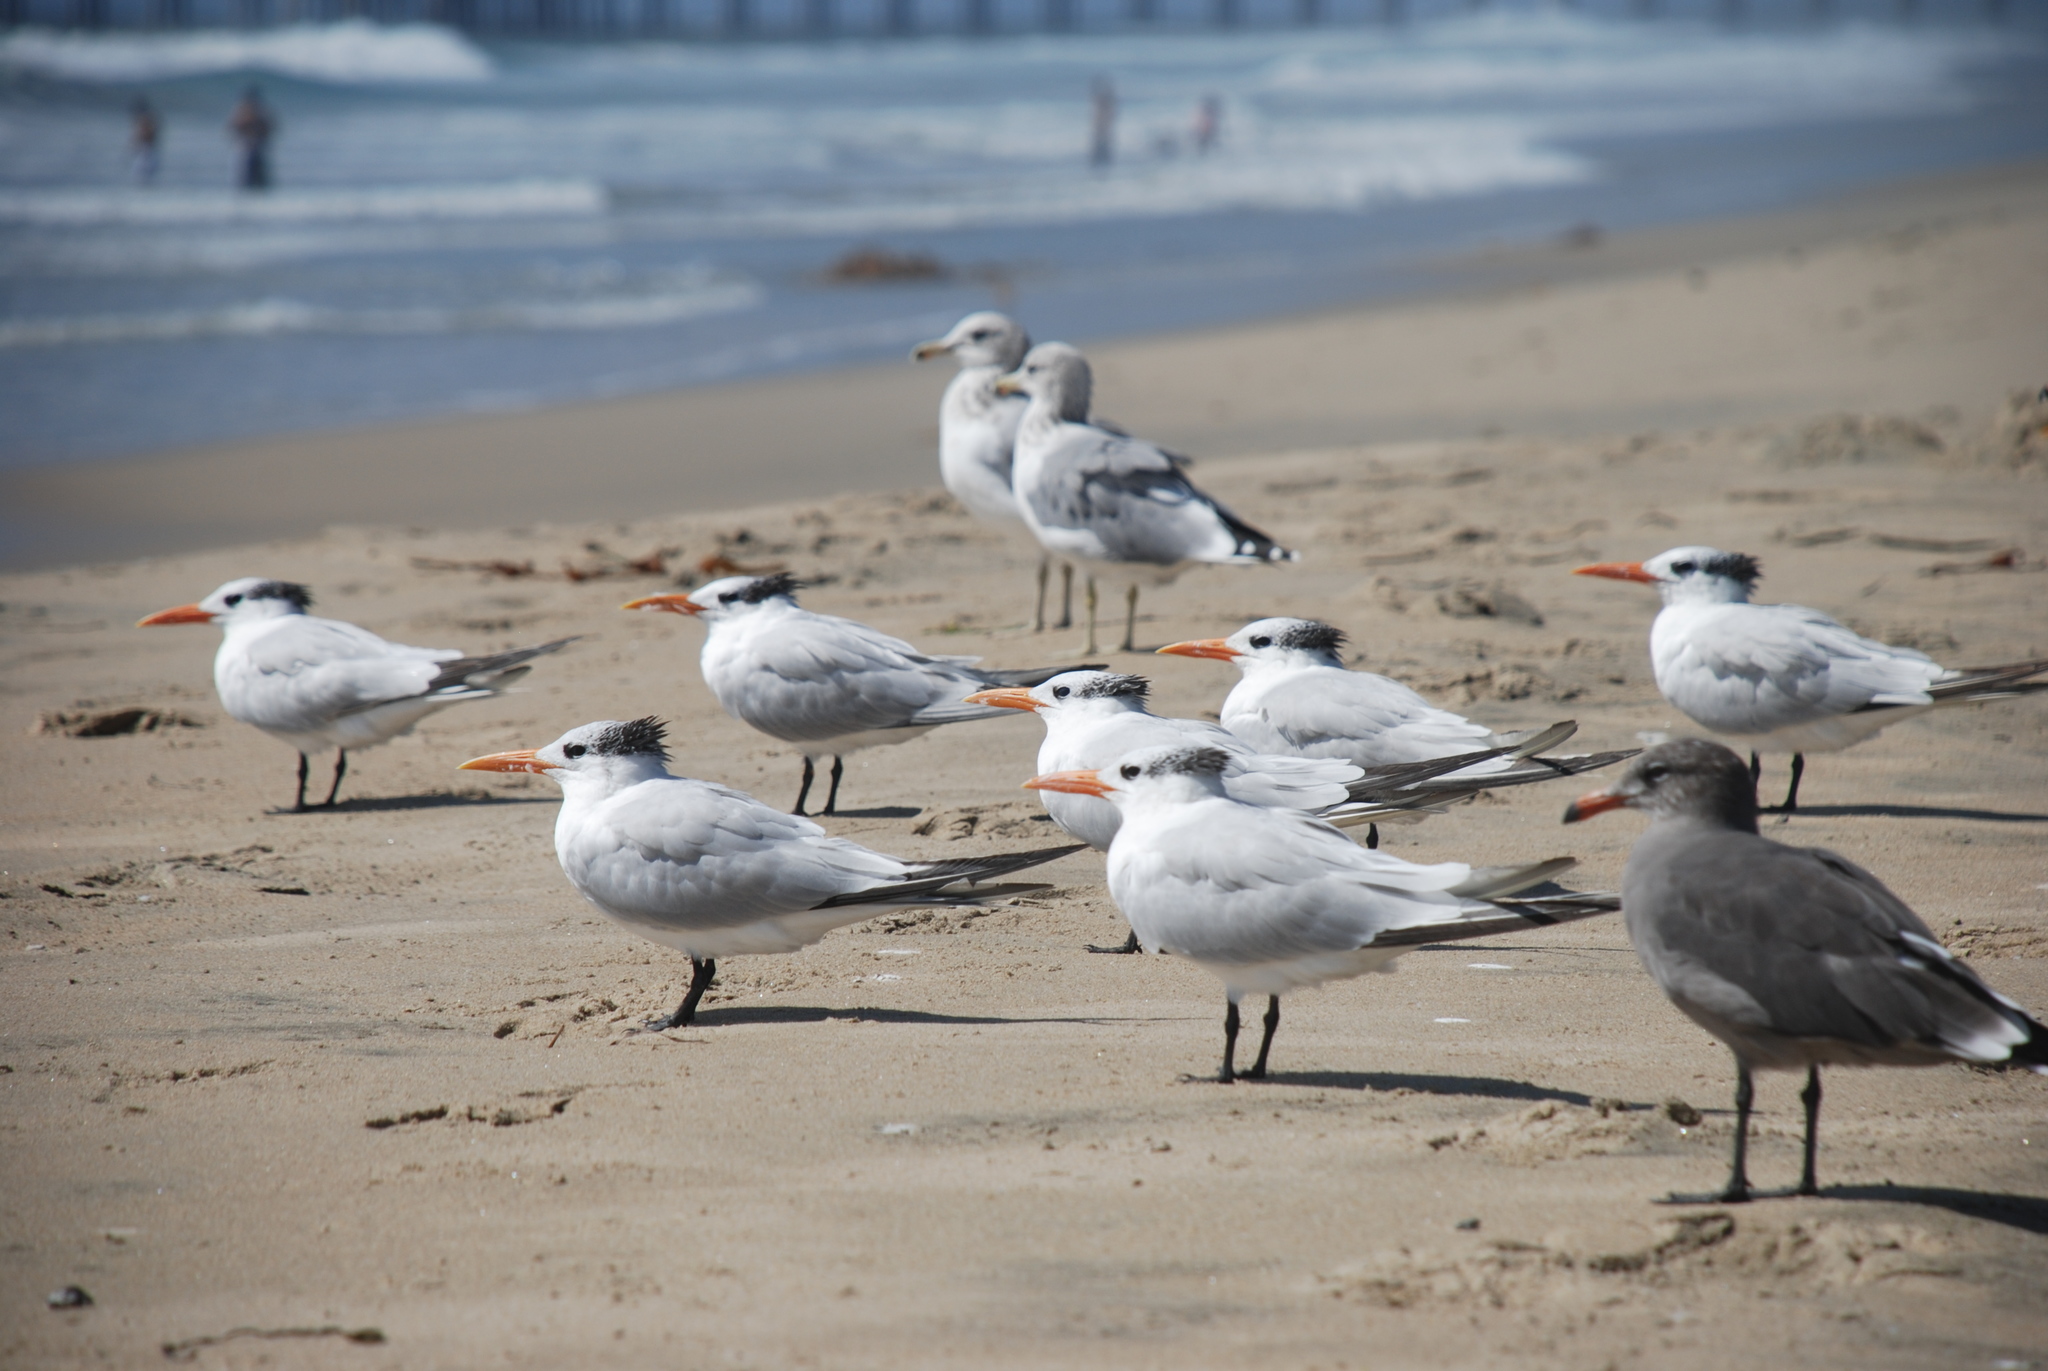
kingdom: Animalia
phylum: Chordata
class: Aves
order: Charadriiformes
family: Laridae
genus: Thalasseus
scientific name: Thalasseus maximus
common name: Royal tern
